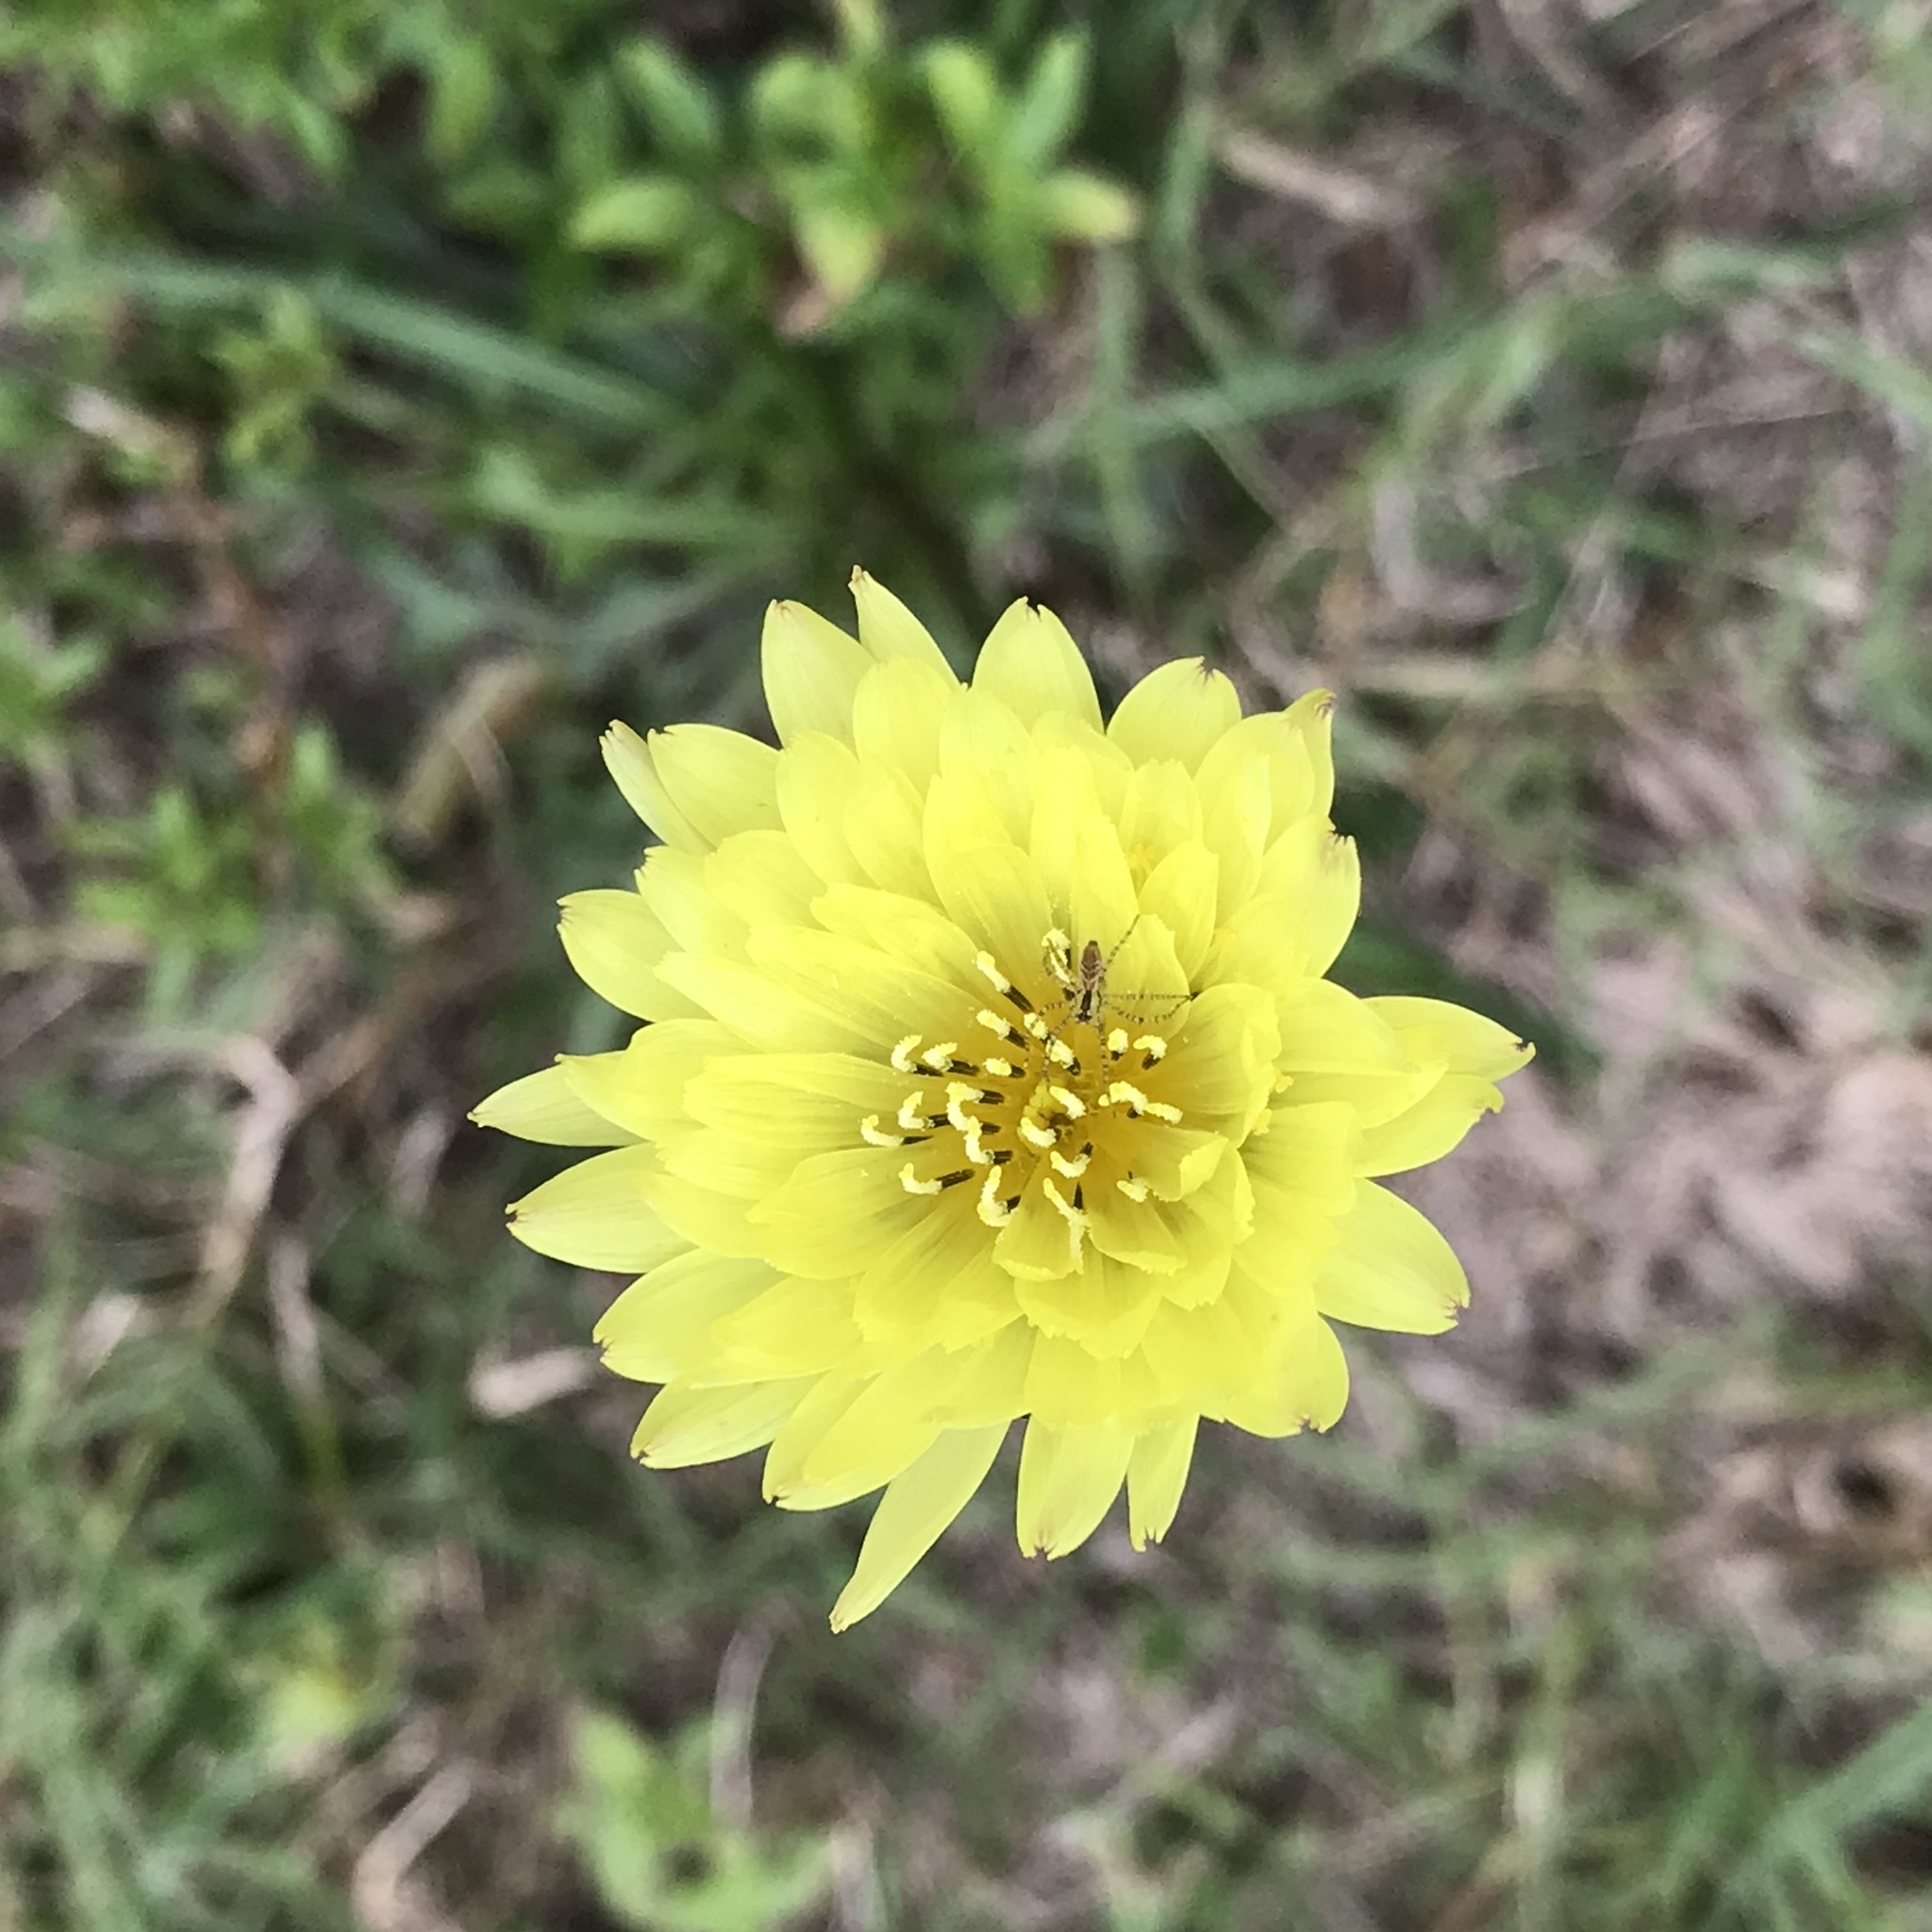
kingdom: Plantae
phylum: Tracheophyta
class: Magnoliopsida
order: Asterales
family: Asteraceae
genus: Pyrrhopappus
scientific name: Pyrrhopappus carolinianus
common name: Carolina desert-chicory
